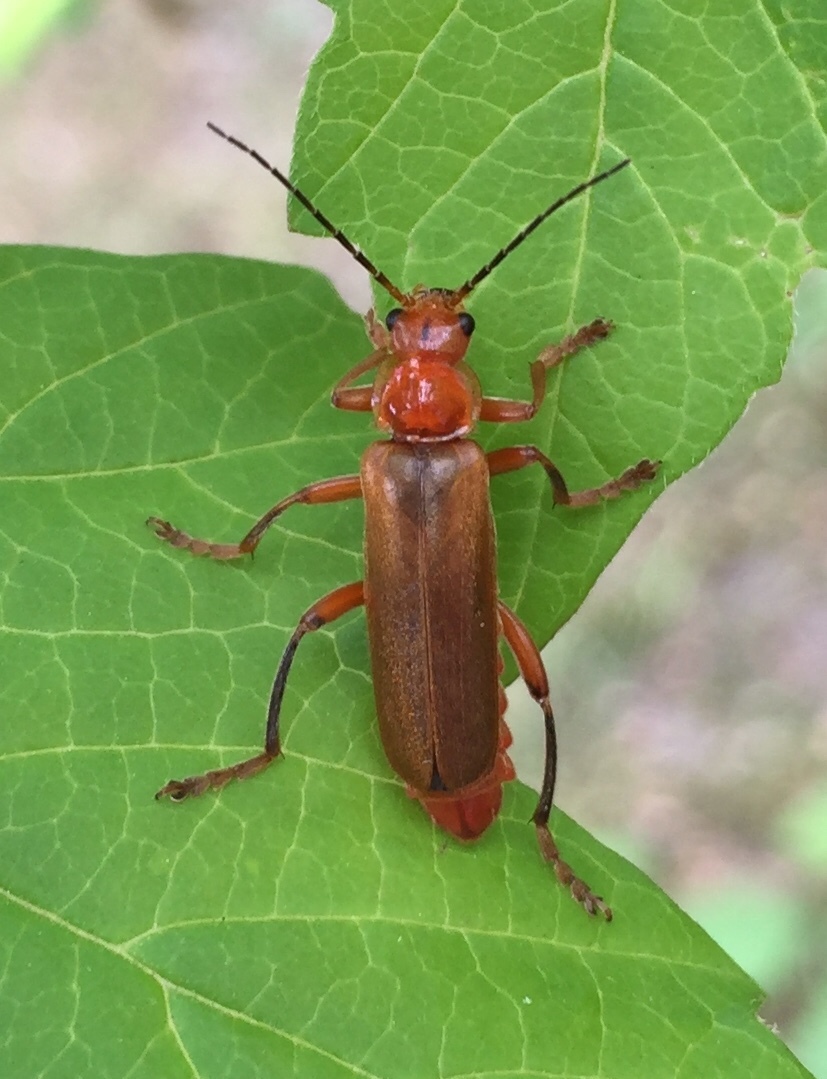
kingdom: Animalia
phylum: Arthropoda
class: Insecta
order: Coleoptera
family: Cantharidae
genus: Cantharis
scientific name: Cantharis livida
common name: Livid soldier beetle
